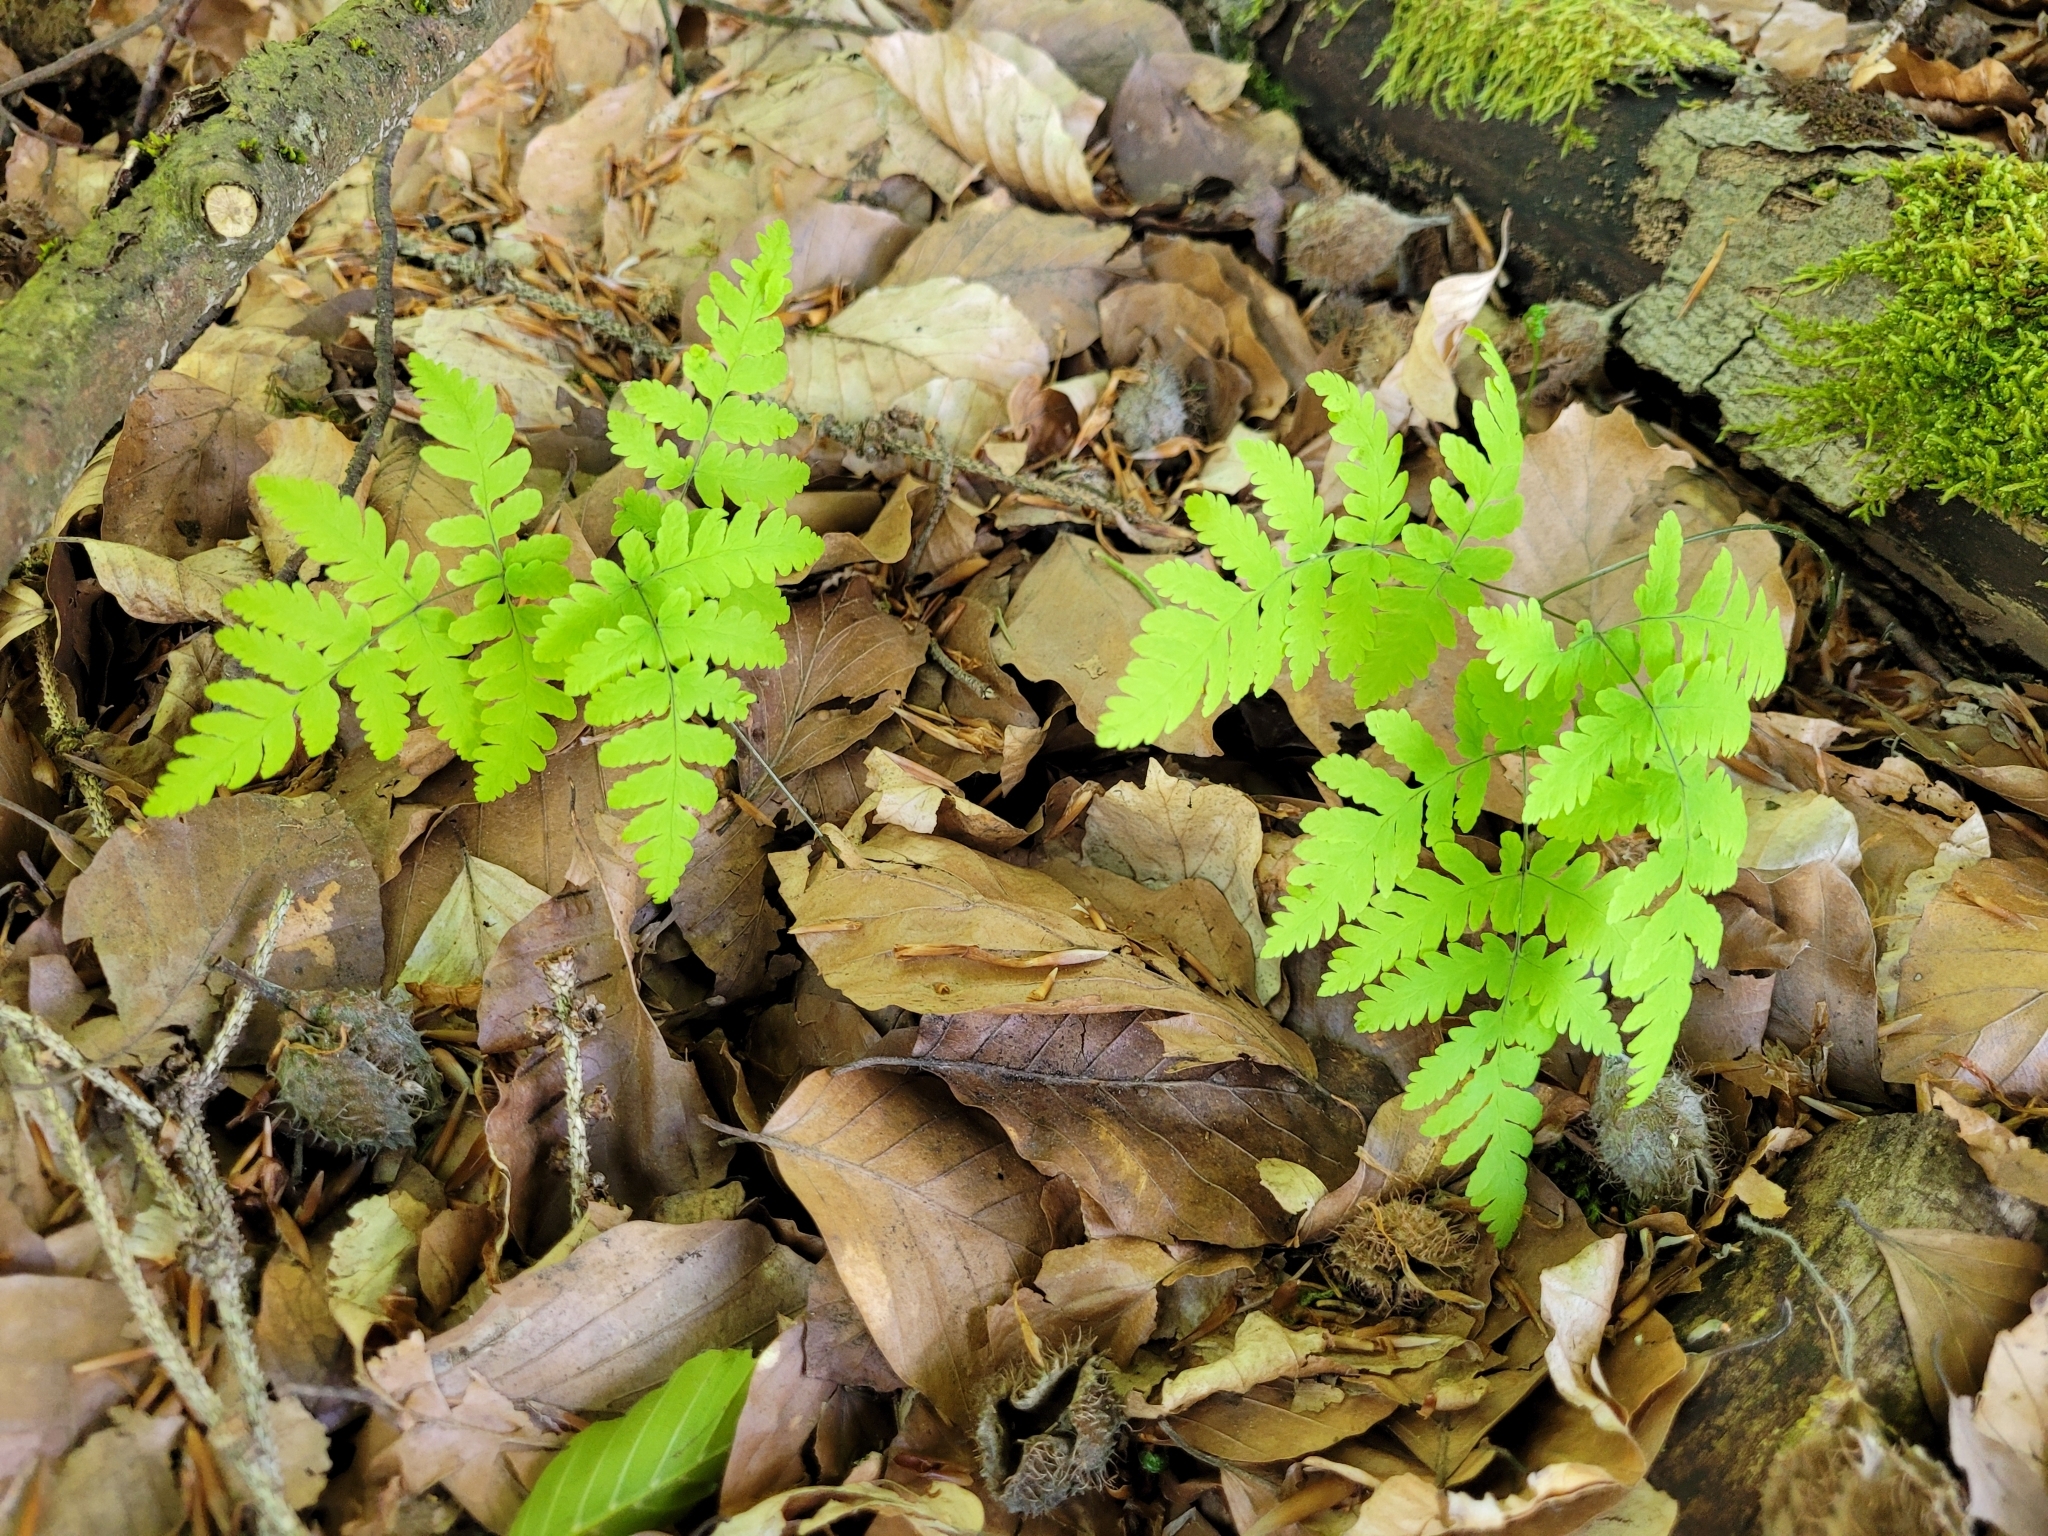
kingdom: Plantae
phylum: Tracheophyta
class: Polypodiopsida
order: Polypodiales
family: Cystopteridaceae
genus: Gymnocarpium
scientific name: Gymnocarpium dryopteris
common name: Oak fern
